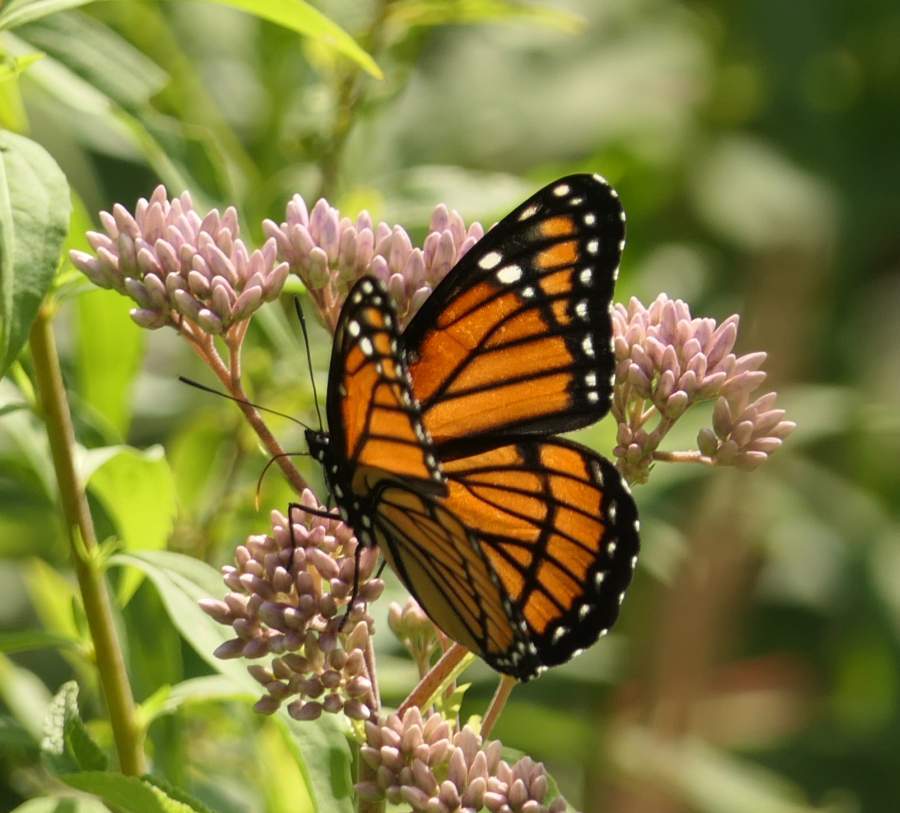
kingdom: Animalia
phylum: Arthropoda
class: Insecta
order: Lepidoptera
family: Nymphalidae
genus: Limenitis
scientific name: Limenitis archippus
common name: Viceroy
